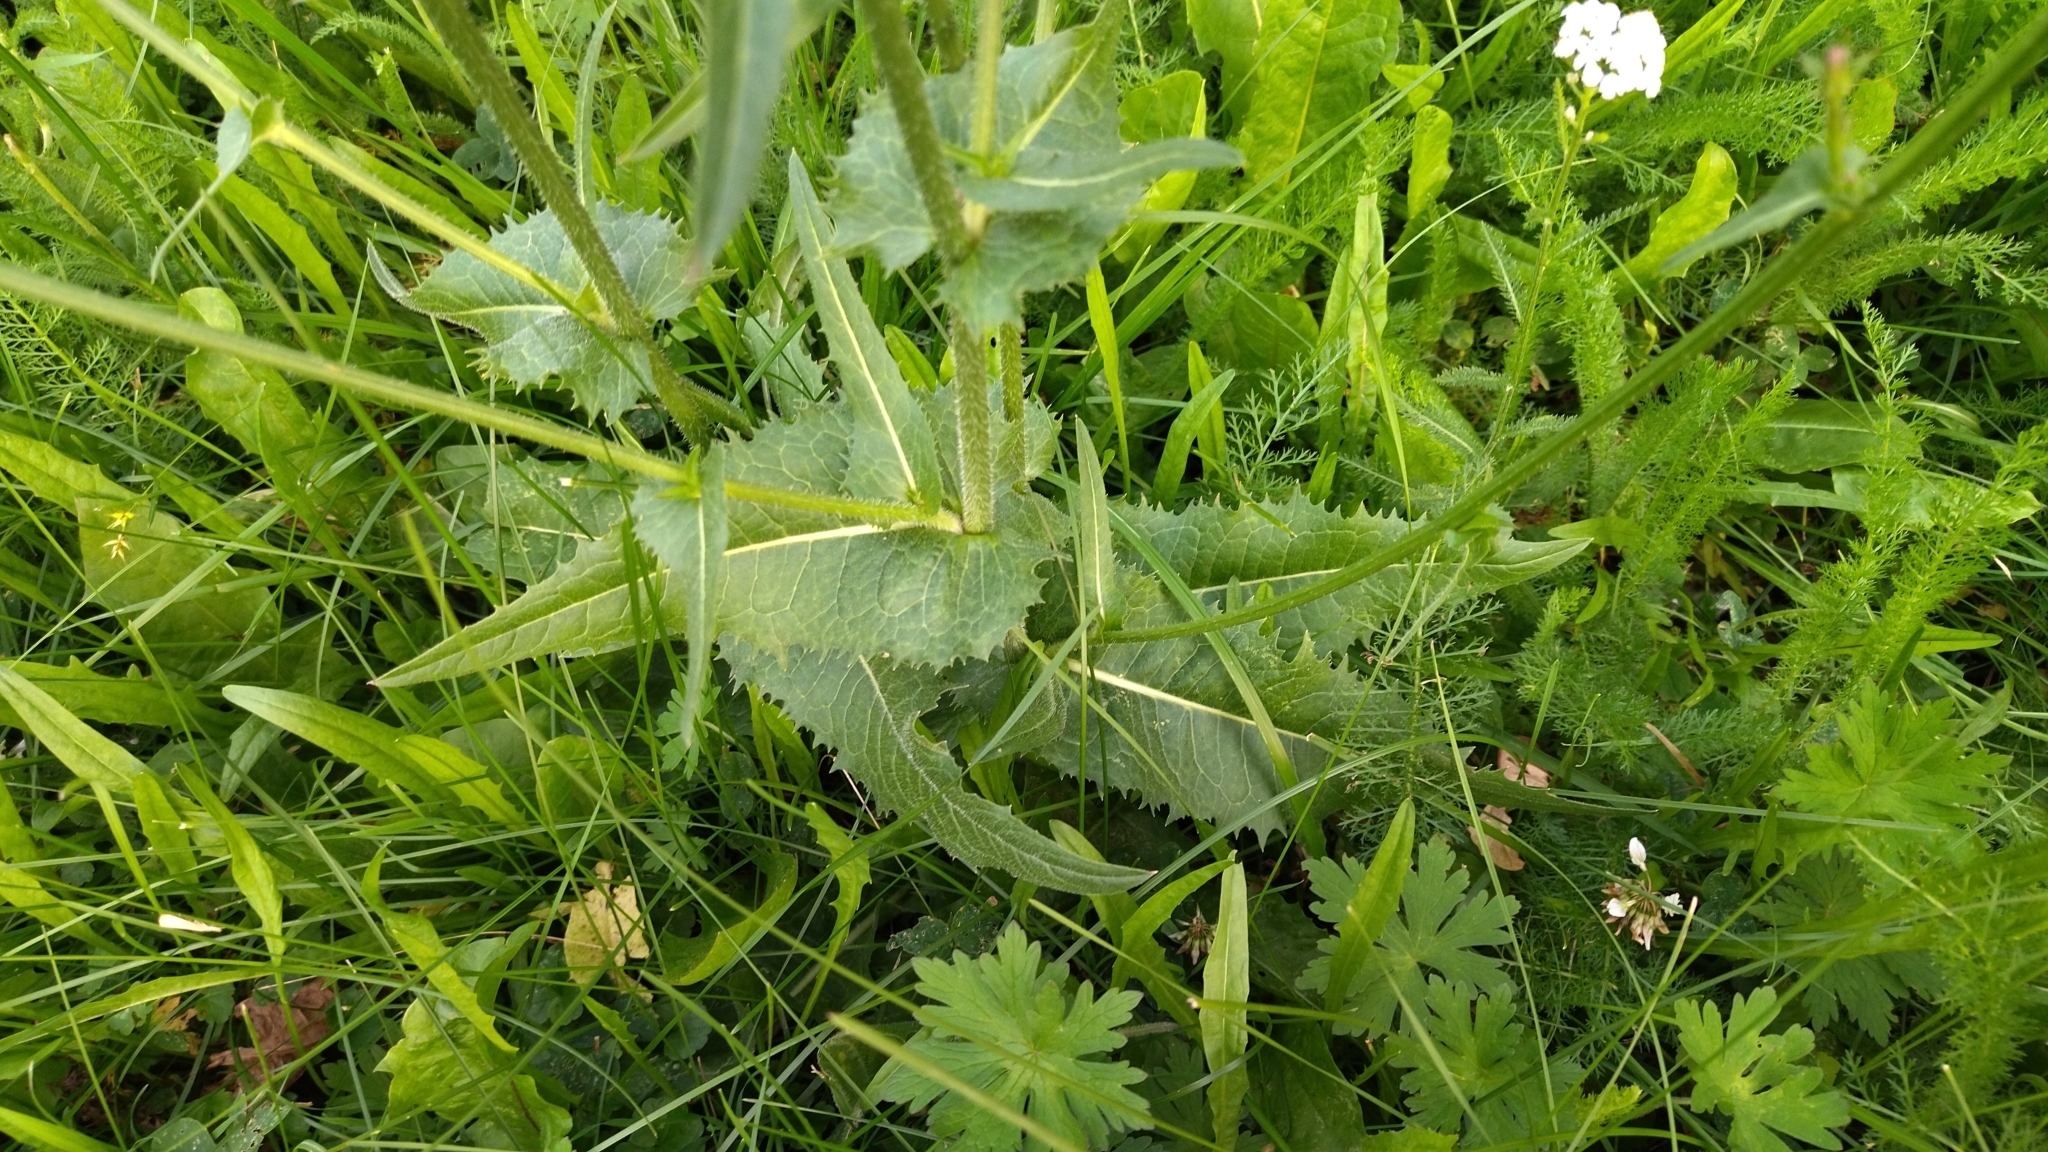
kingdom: Plantae
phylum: Tracheophyta
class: Magnoliopsida
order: Asterales
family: Asteraceae
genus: Cichorium
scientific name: Cichorium intybus
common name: Chicory
